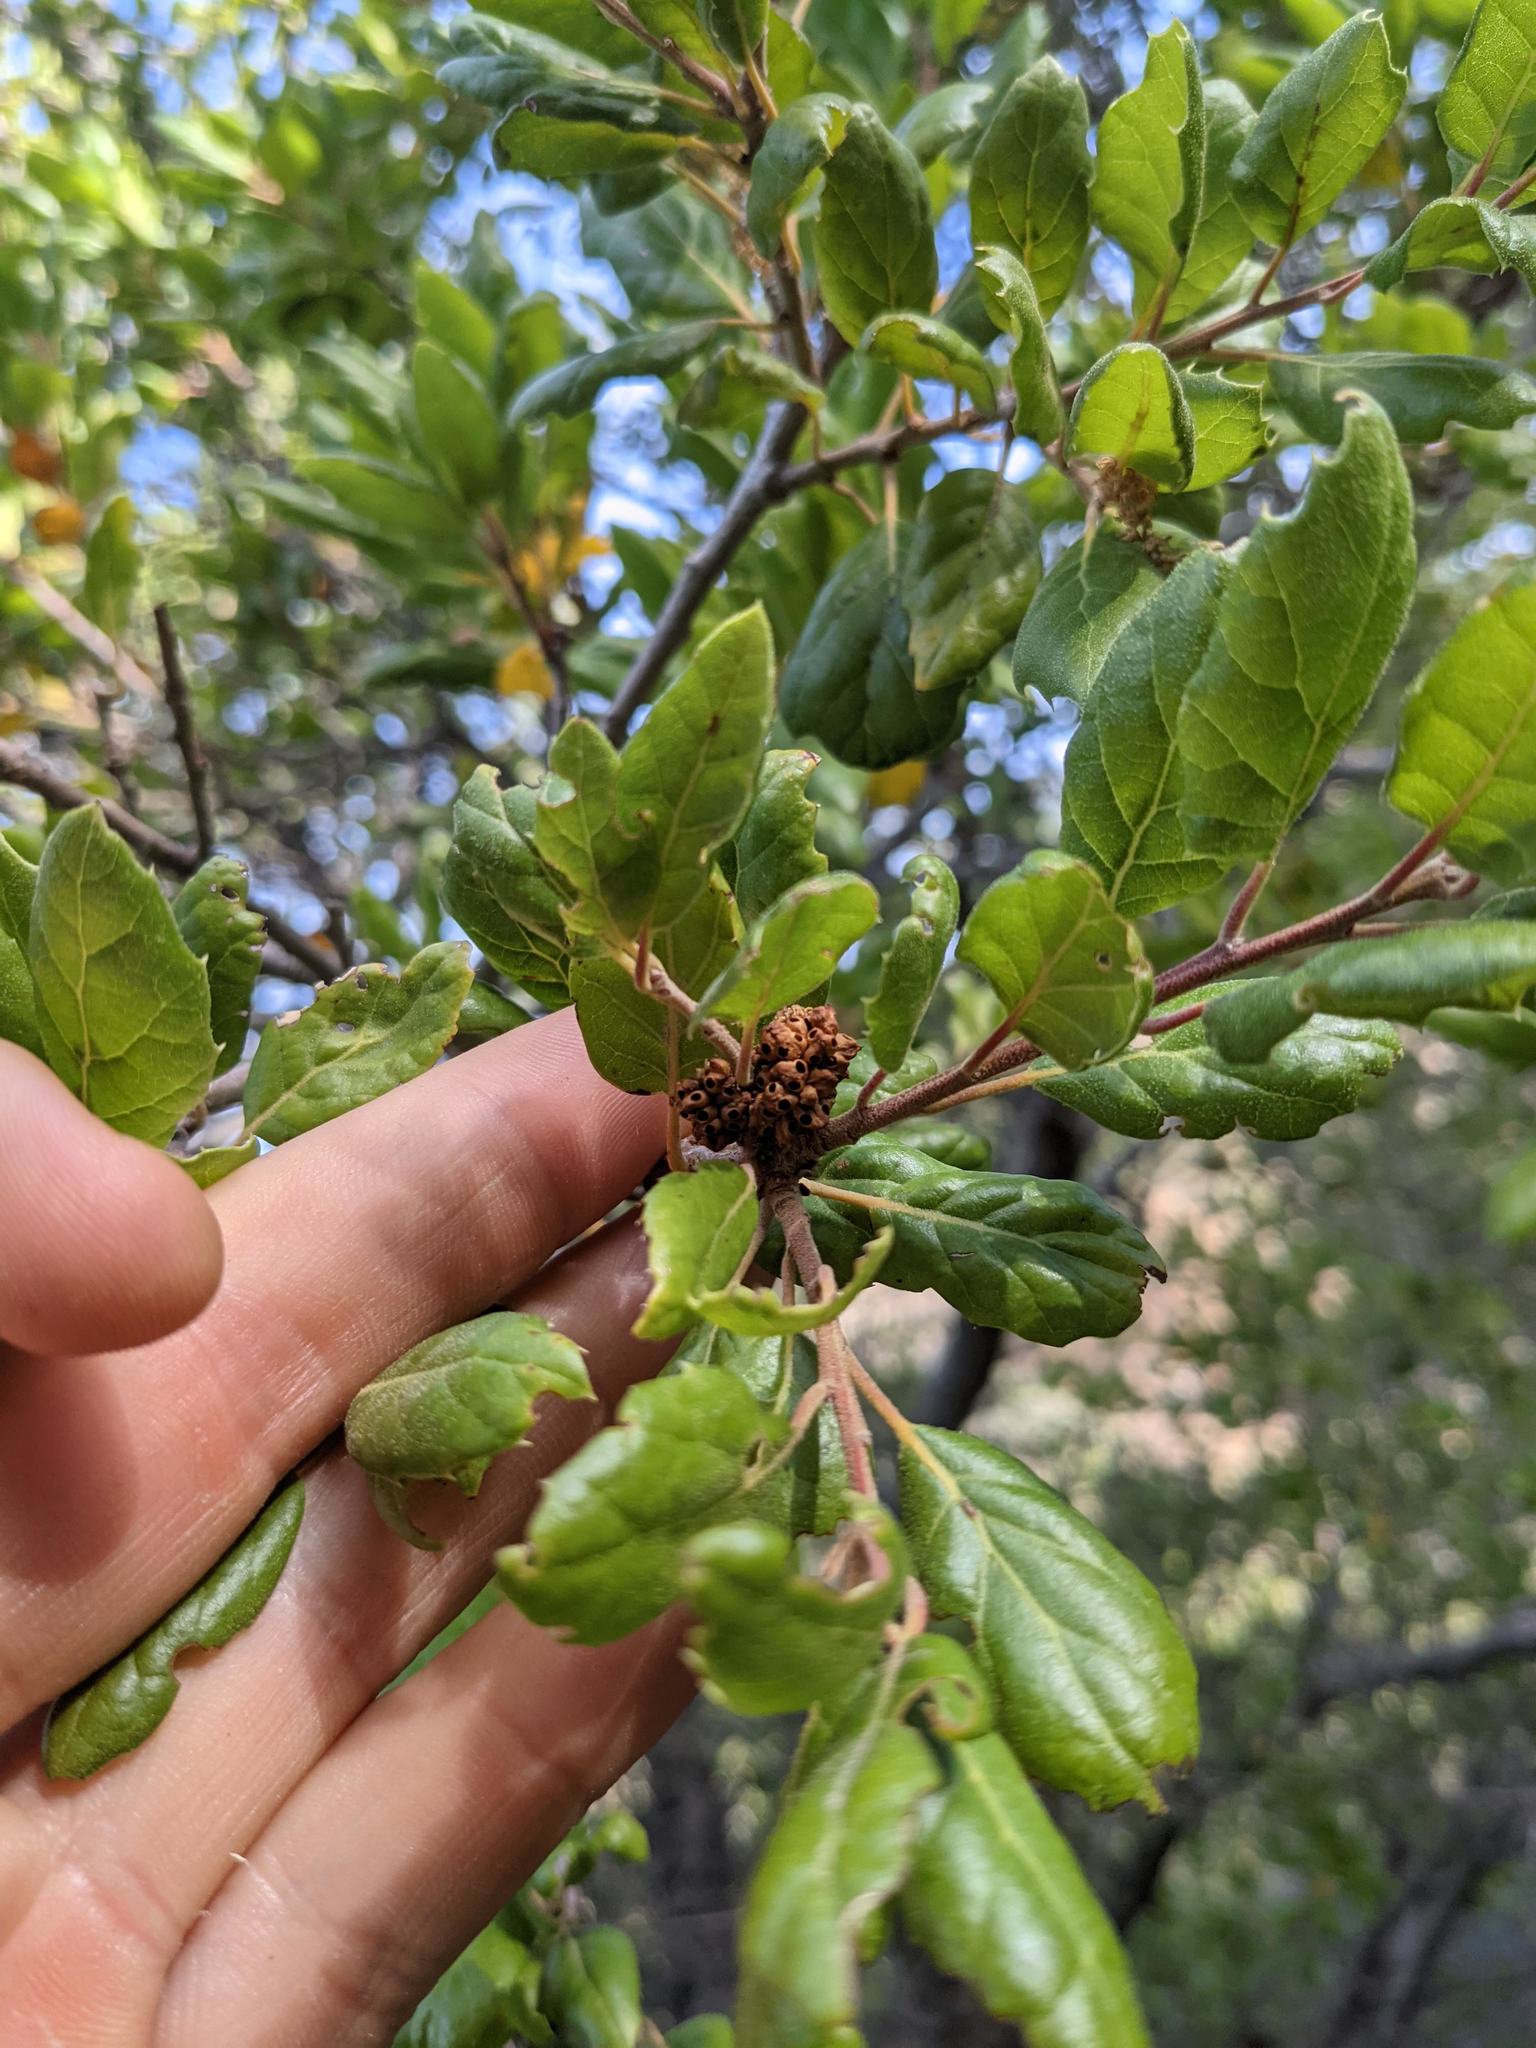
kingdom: Animalia
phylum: Arthropoda
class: Insecta
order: Hymenoptera
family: Cynipidae
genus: Callirhytis
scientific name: Callirhytis
